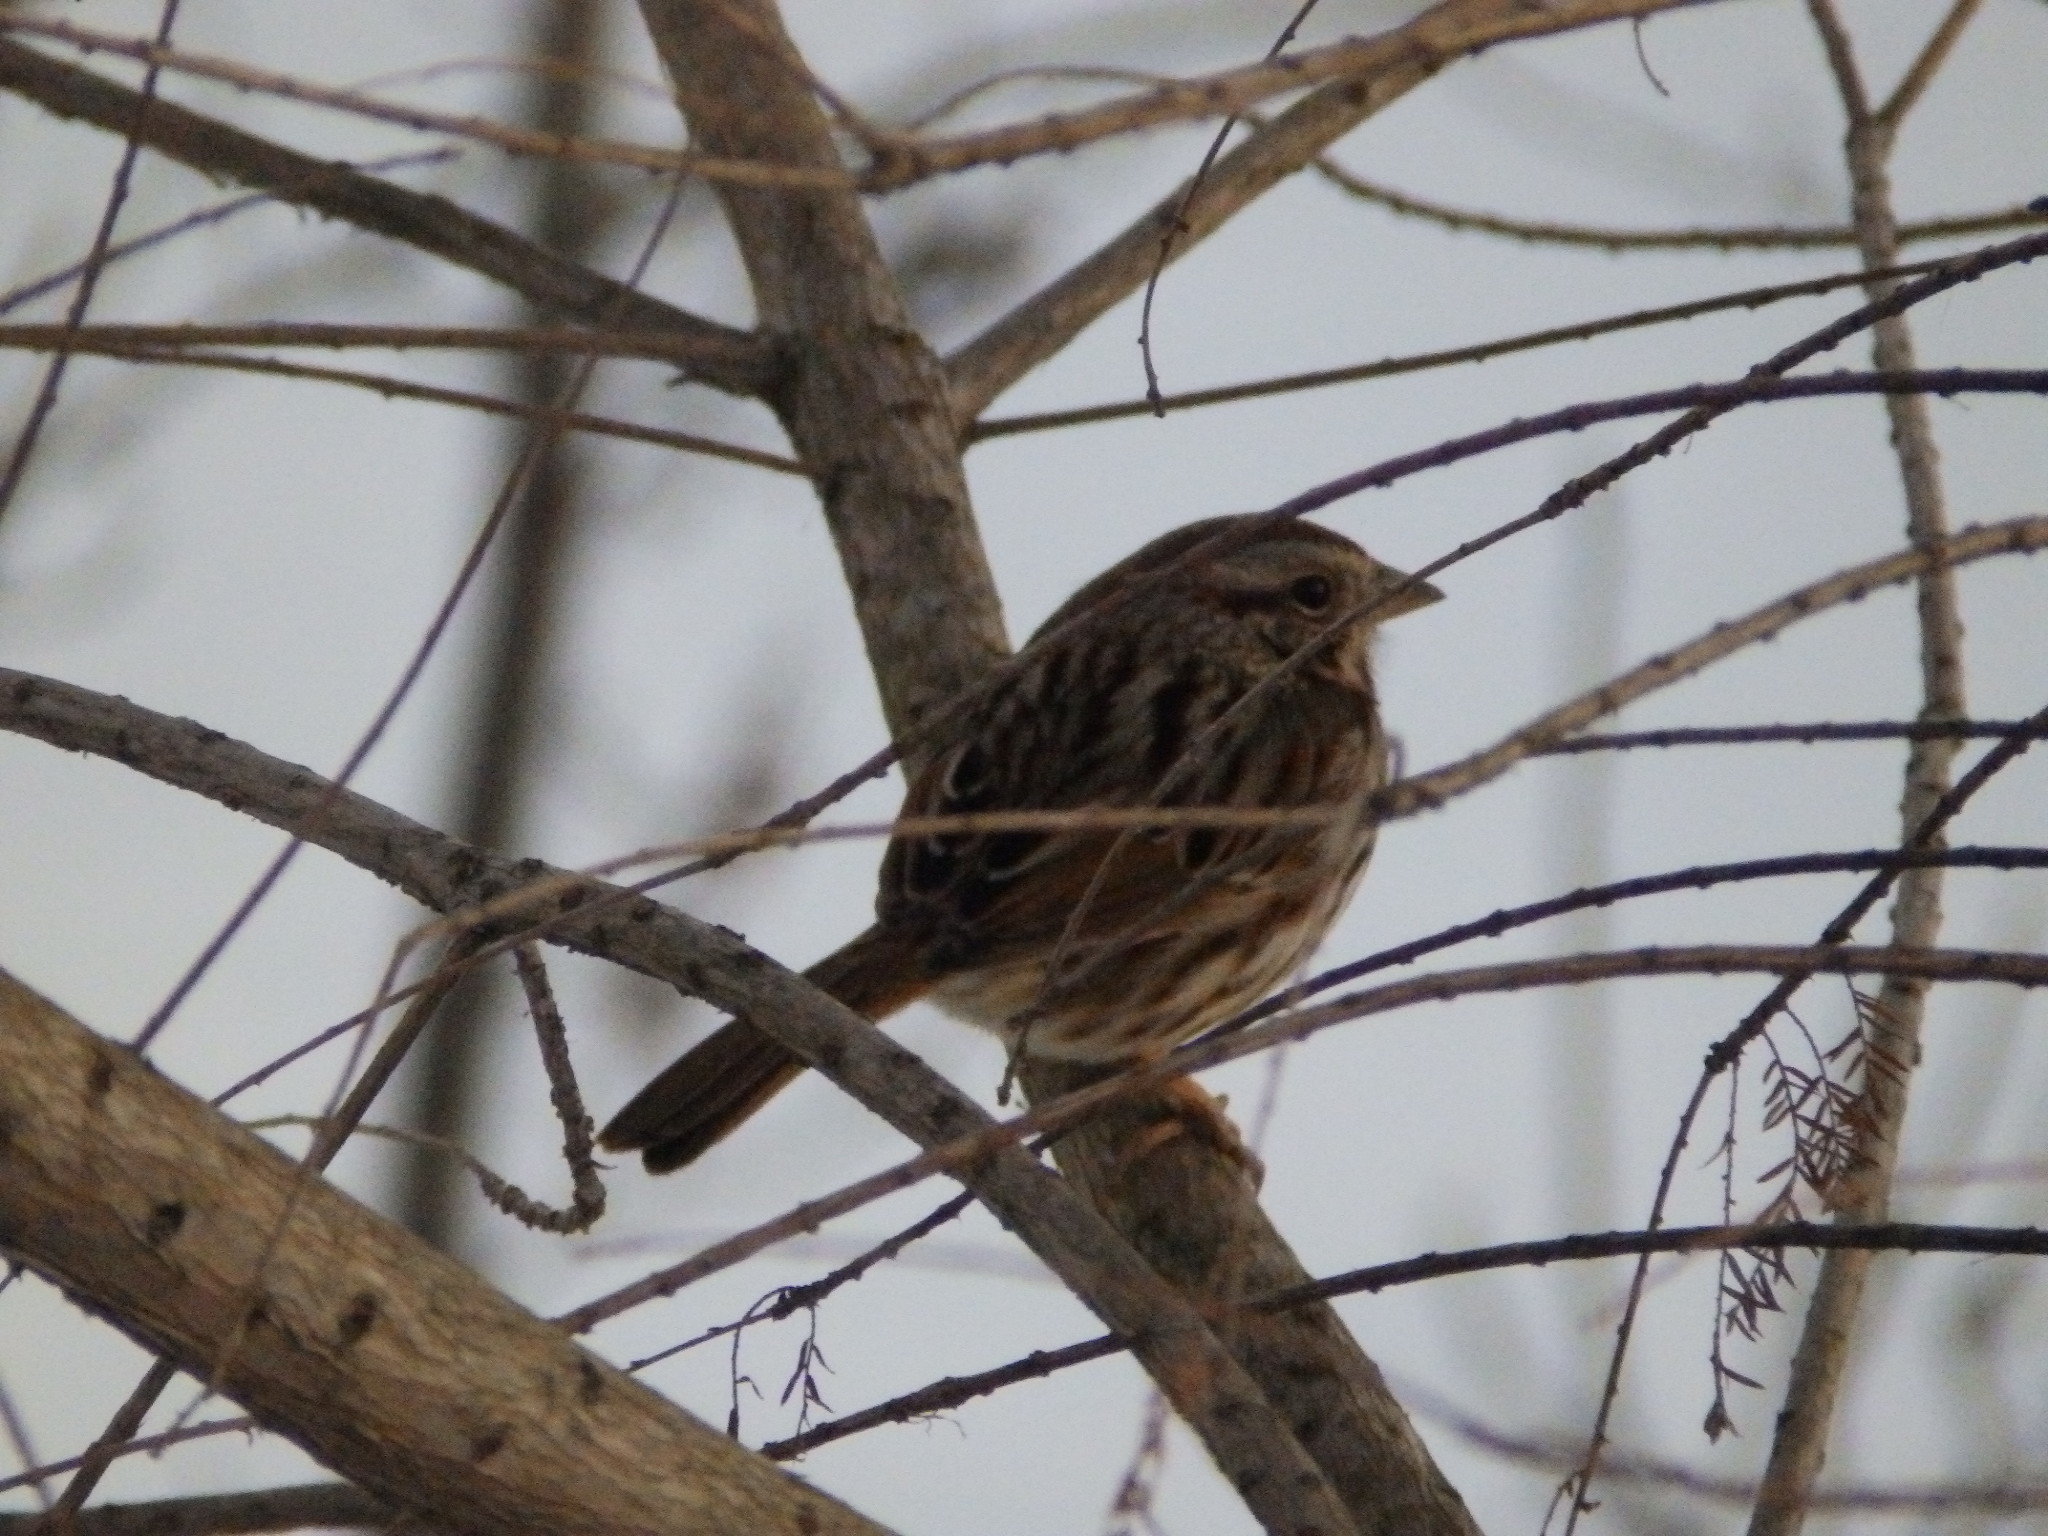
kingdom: Animalia
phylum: Chordata
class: Aves
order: Passeriformes
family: Passerellidae
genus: Melospiza
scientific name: Melospiza melodia
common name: Song sparrow
